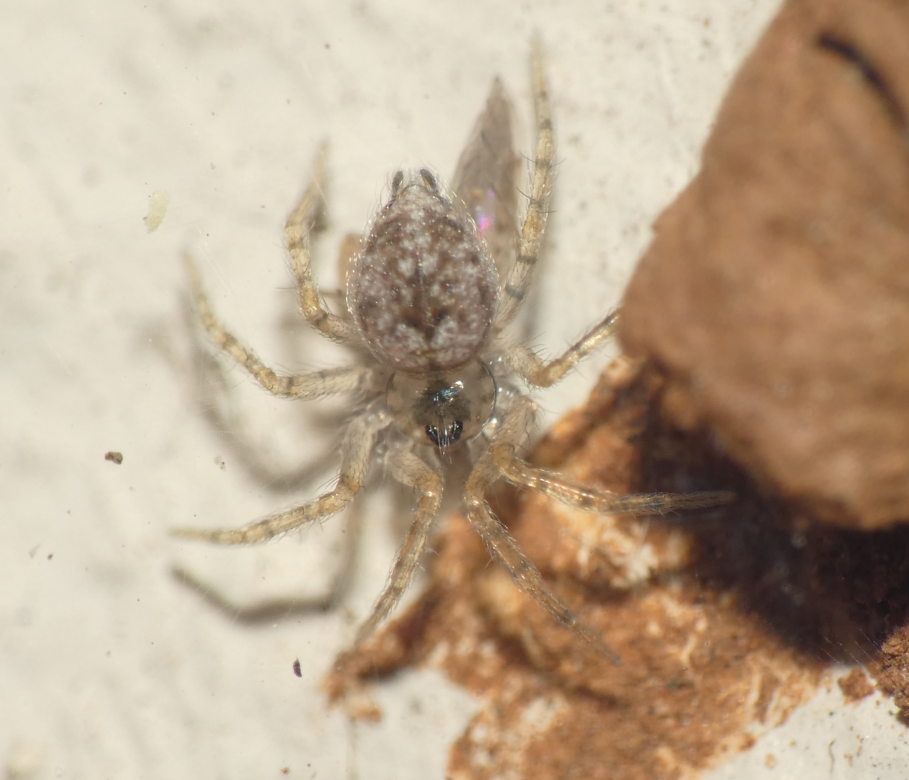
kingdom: Animalia
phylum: Arthropoda
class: Arachnida
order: Araneae
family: Oecobiidae
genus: Oecobius
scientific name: Oecobius navus
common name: Flatmesh weaver
